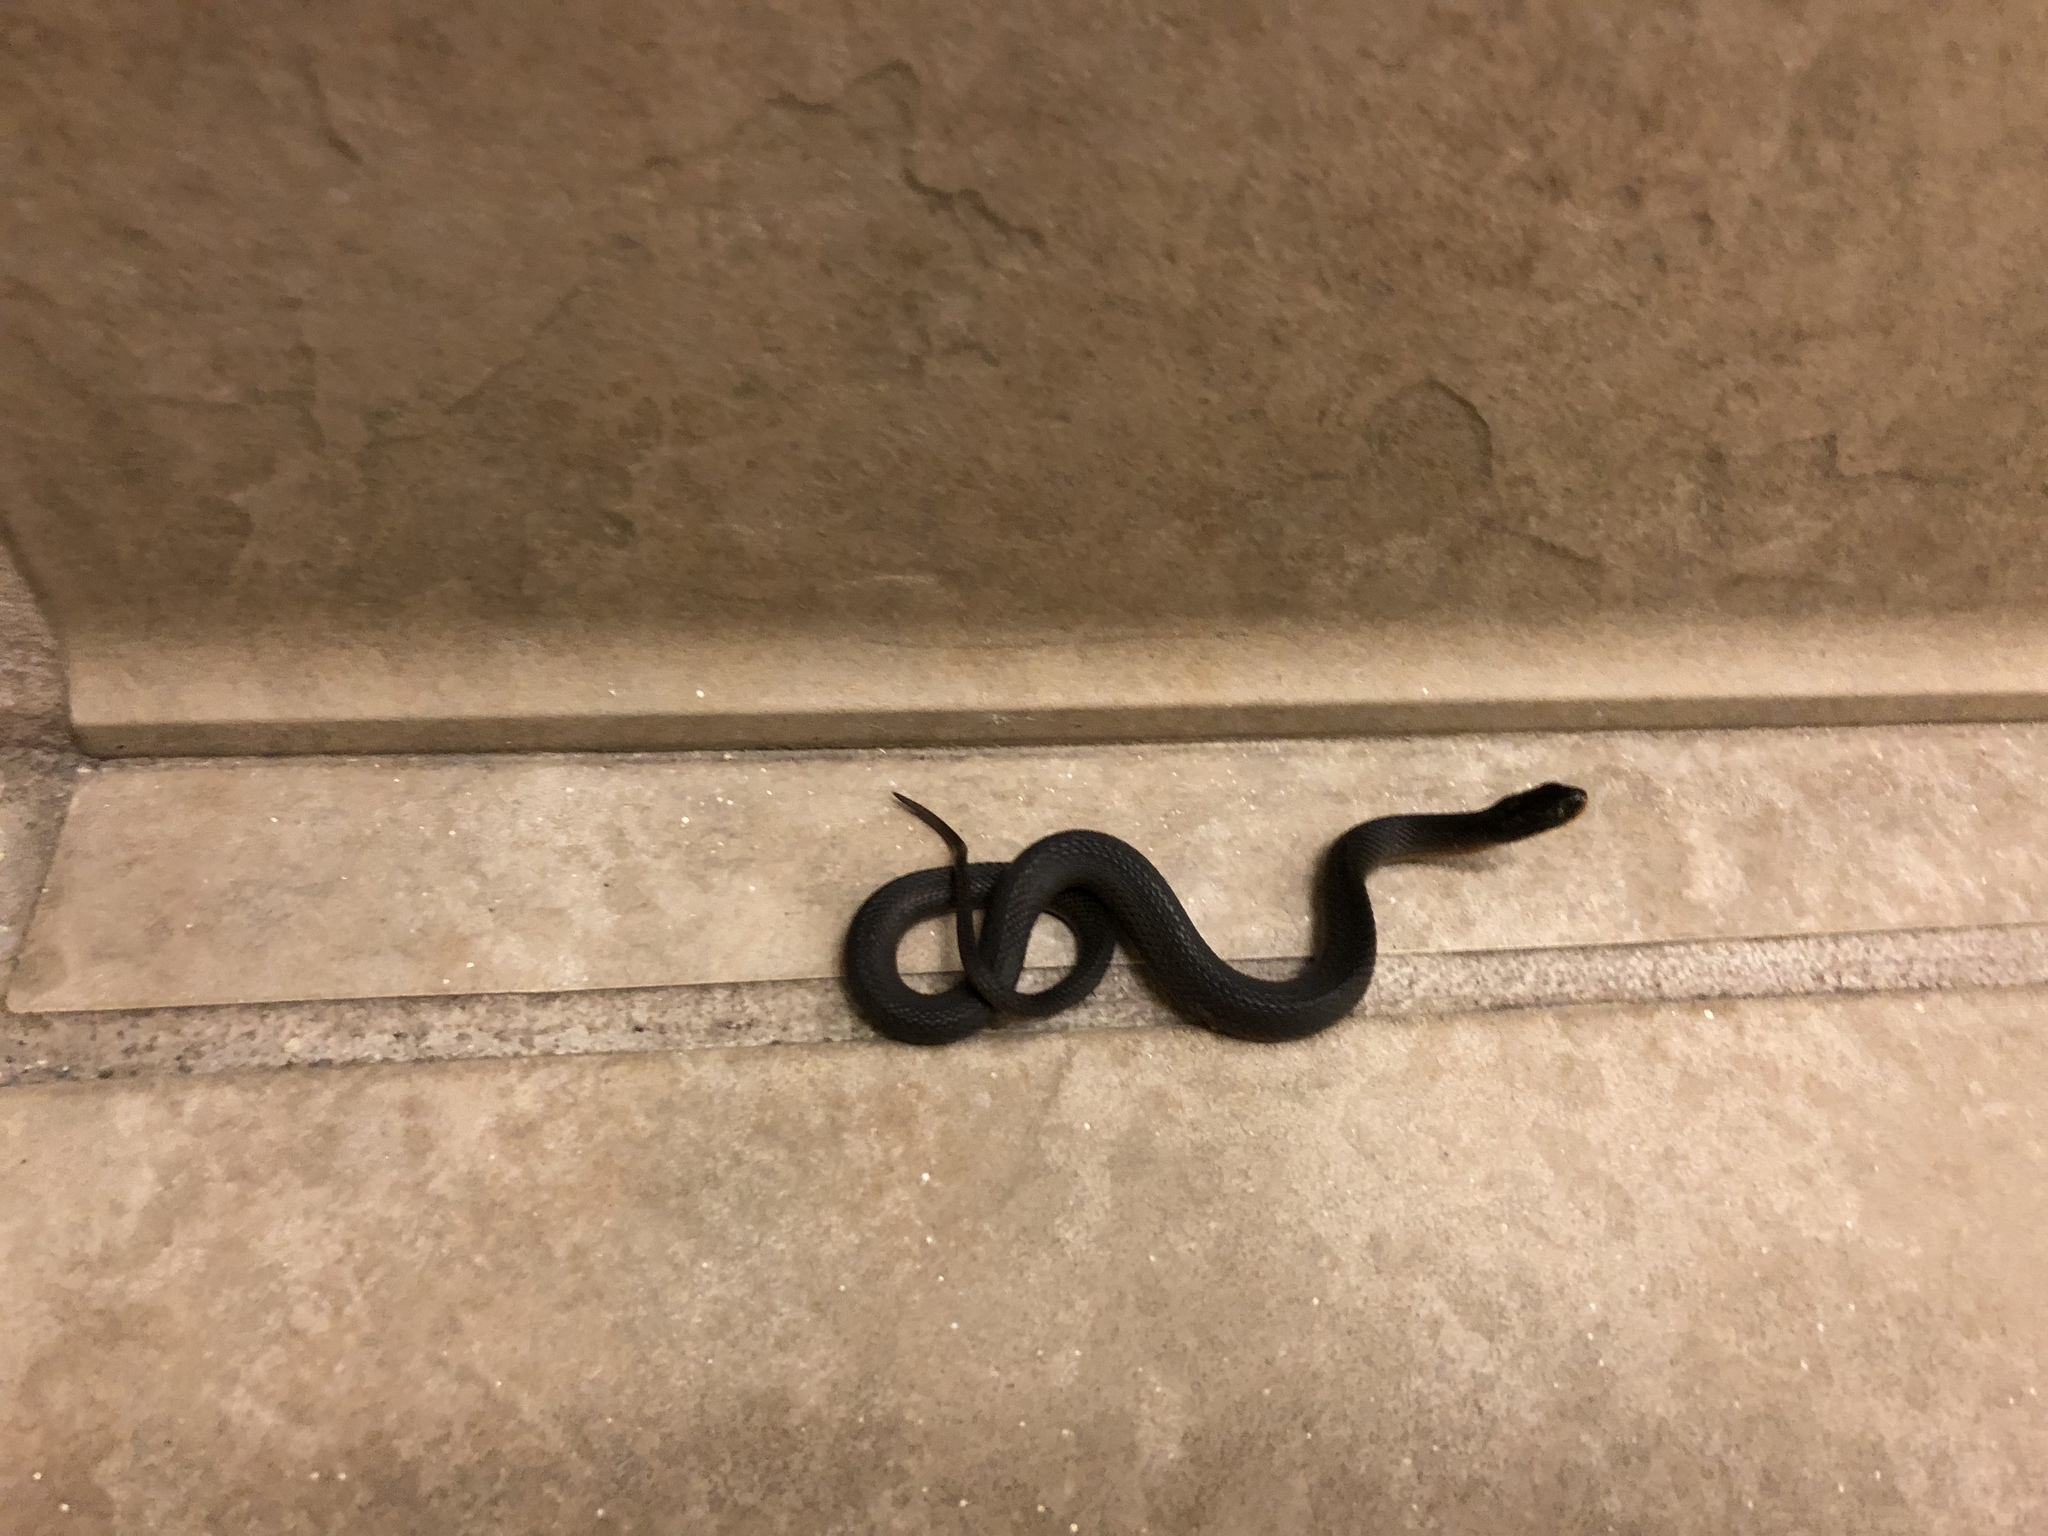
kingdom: Animalia
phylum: Chordata
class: Squamata
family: Colubridae
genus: Liodytes
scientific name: Liodytes rigida
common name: Crayfish snake
